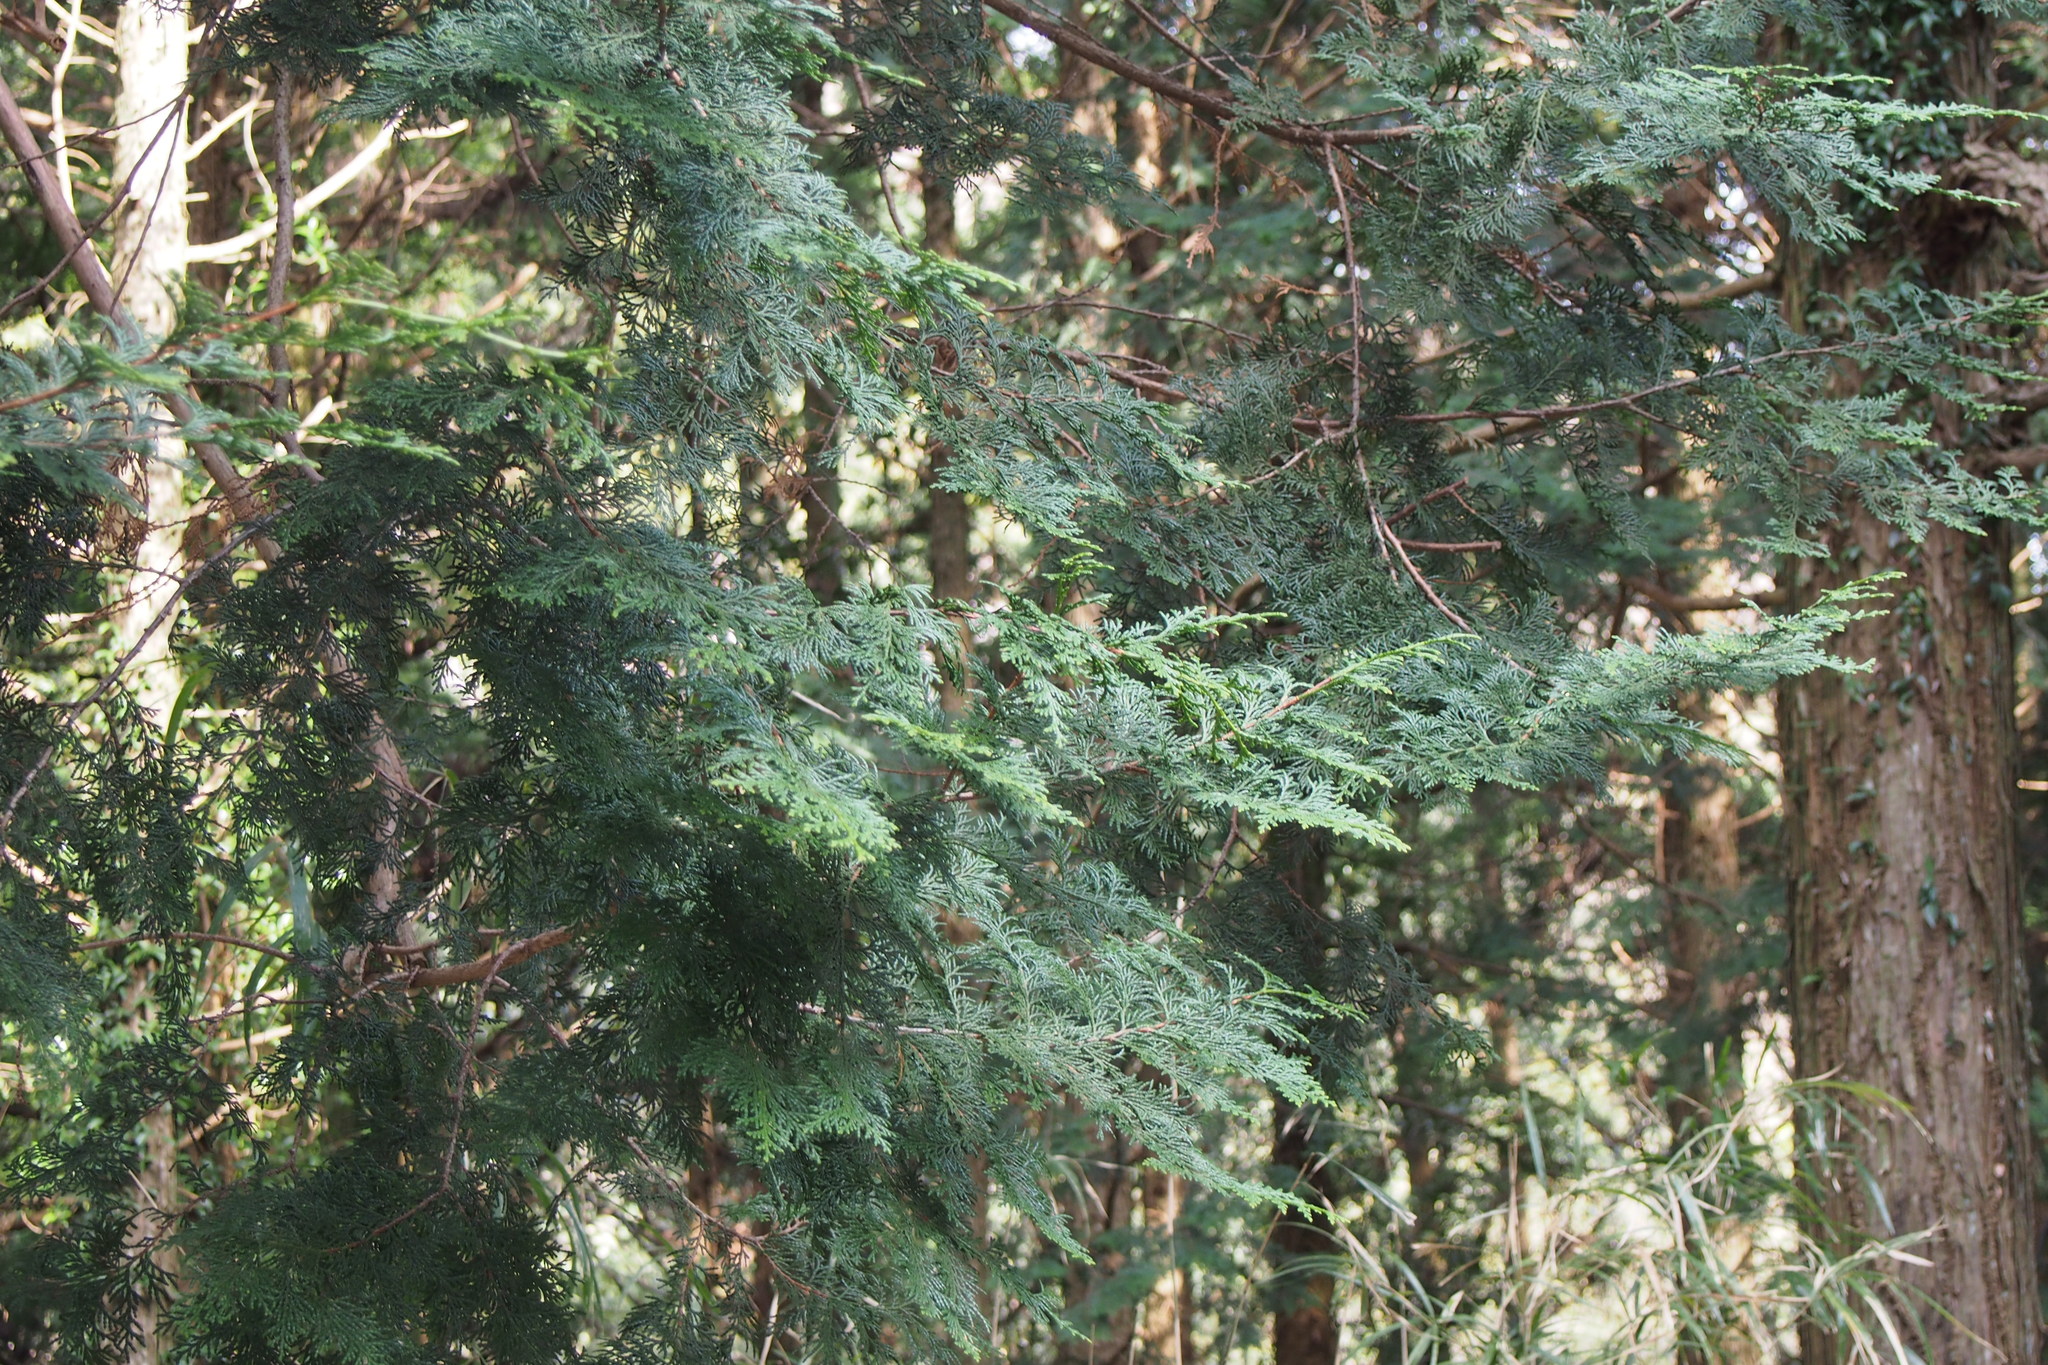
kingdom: Plantae
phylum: Tracheophyta
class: Pinopsida
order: Pinales
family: Cupressaceae
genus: Chamaecyparis
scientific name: Chamaecyparis obtusa
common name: Hinoki false cypress
